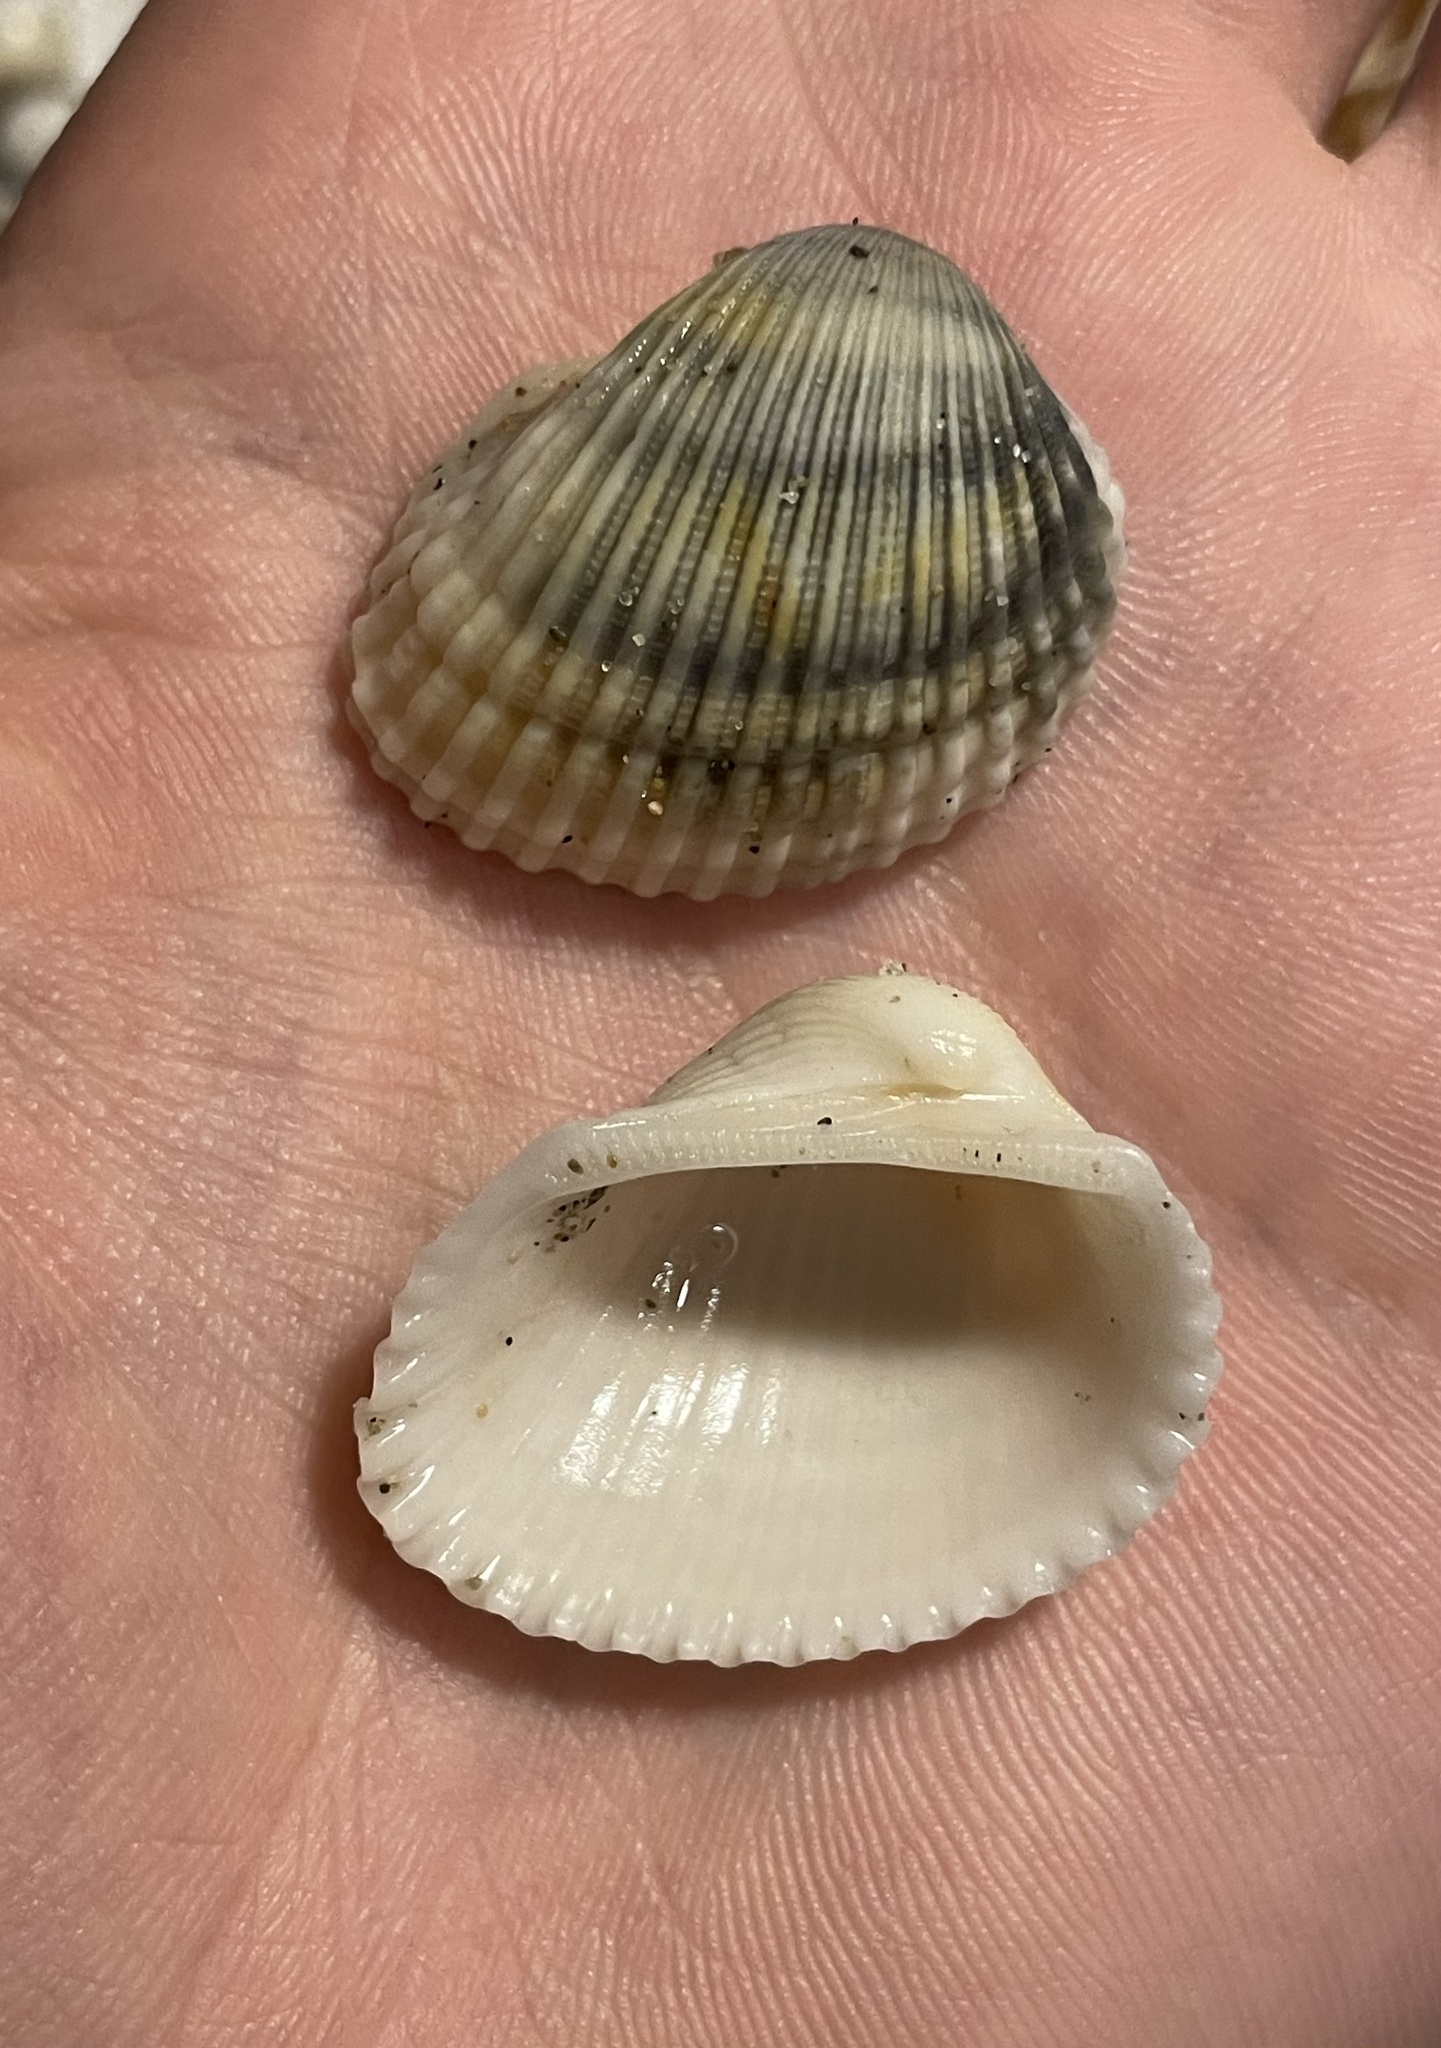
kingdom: Animalia
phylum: Mollusca
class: Bivalvia
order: Arcida
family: Arcidae
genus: Anadara
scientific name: Anadara gibbosa
